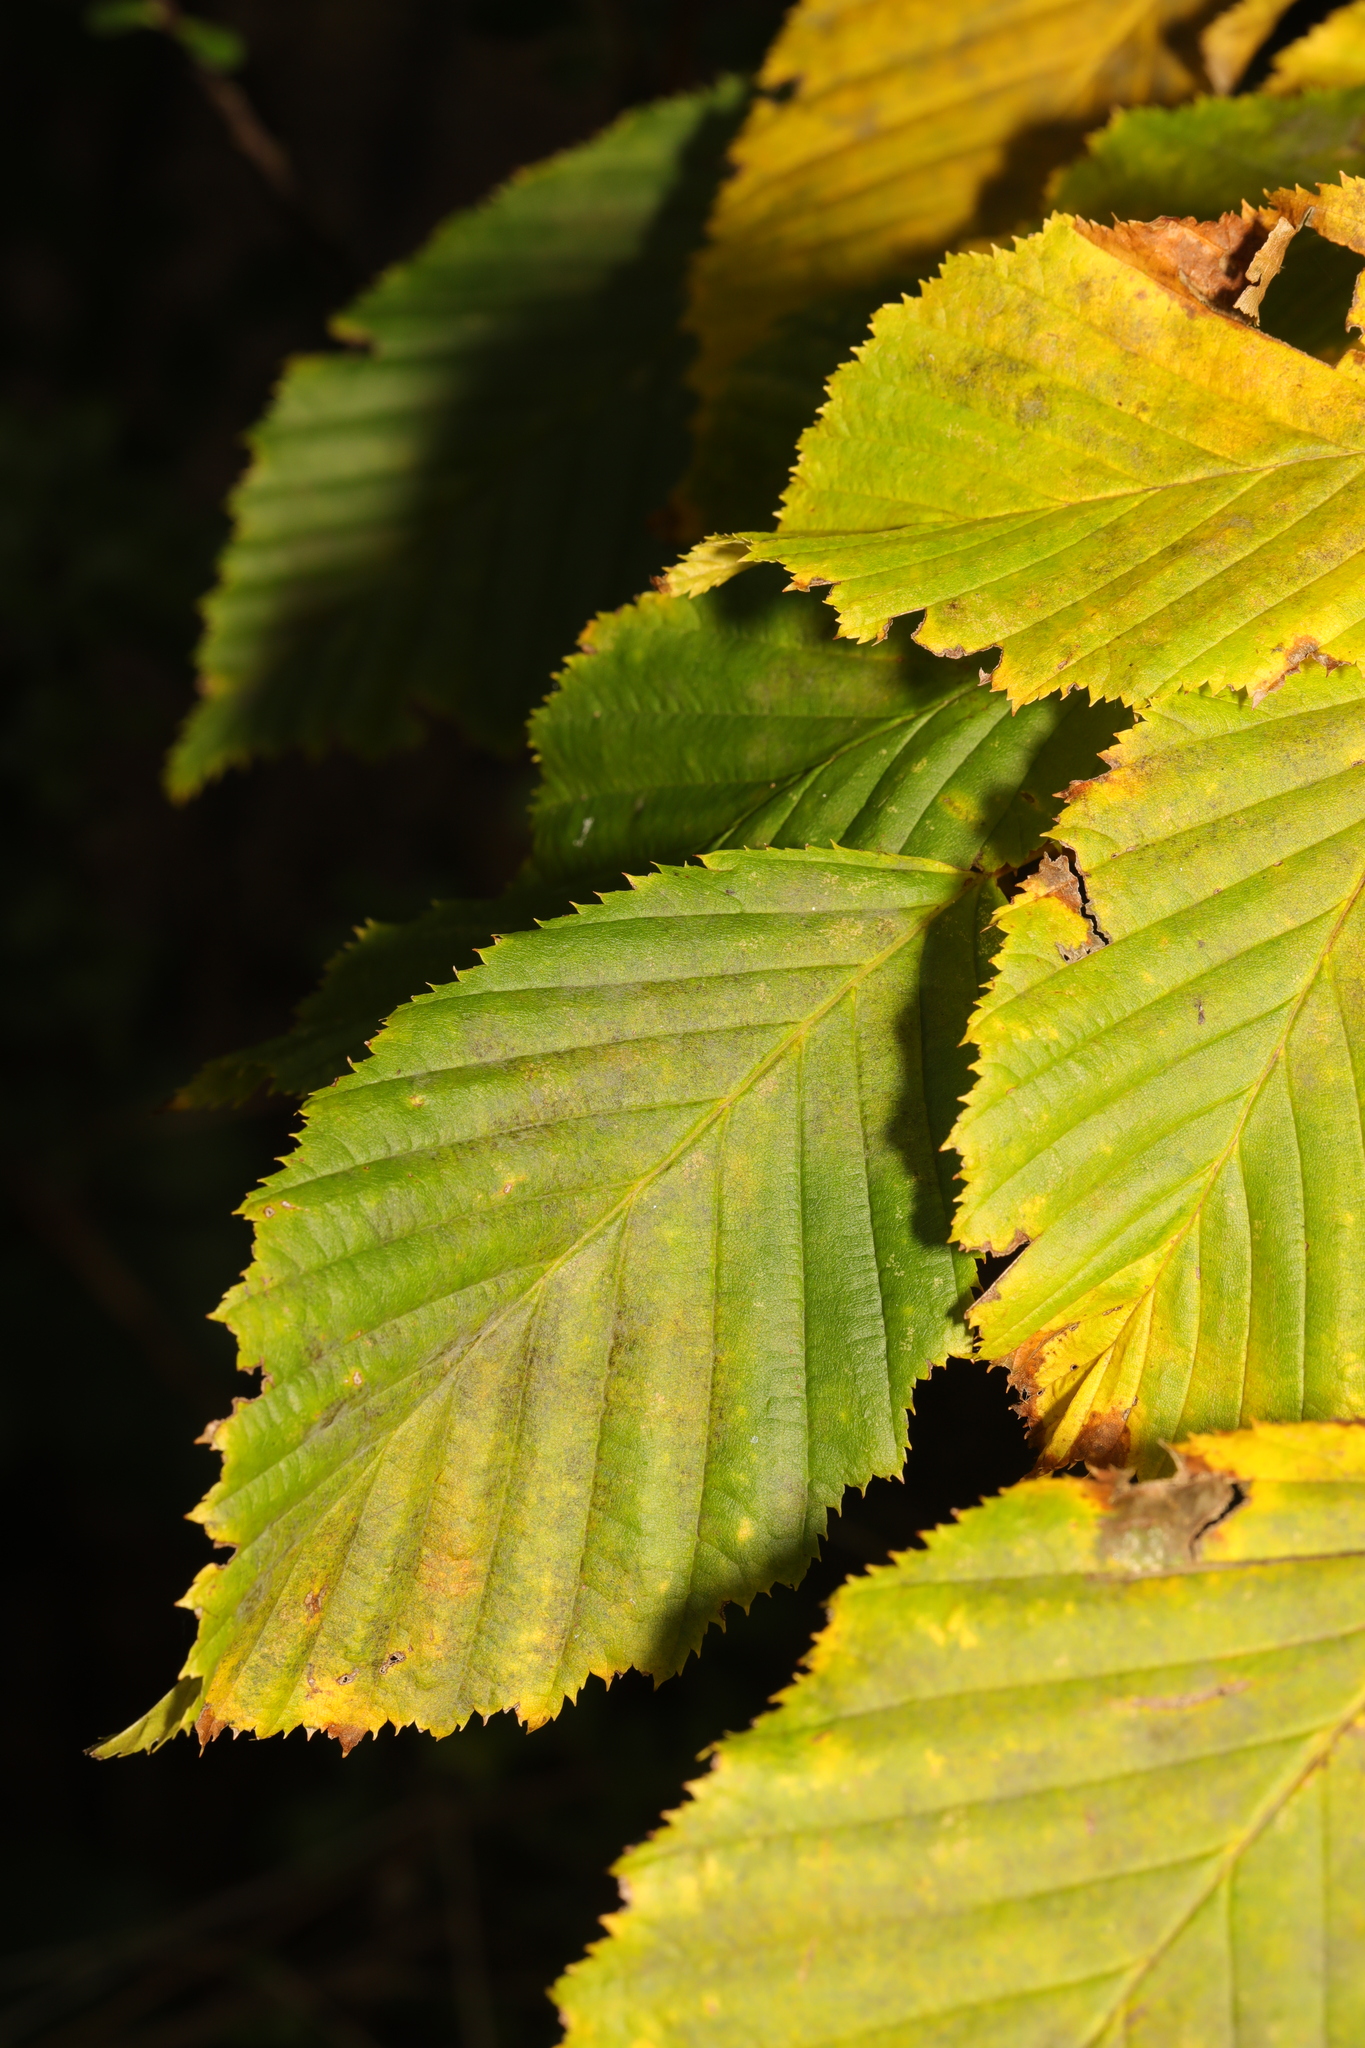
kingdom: Plantae
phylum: Tracheophyta
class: Magnoliopsida
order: Fagales
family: Betulaceae
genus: Carpinus
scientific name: Carpinus betulus
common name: Hornbeam
